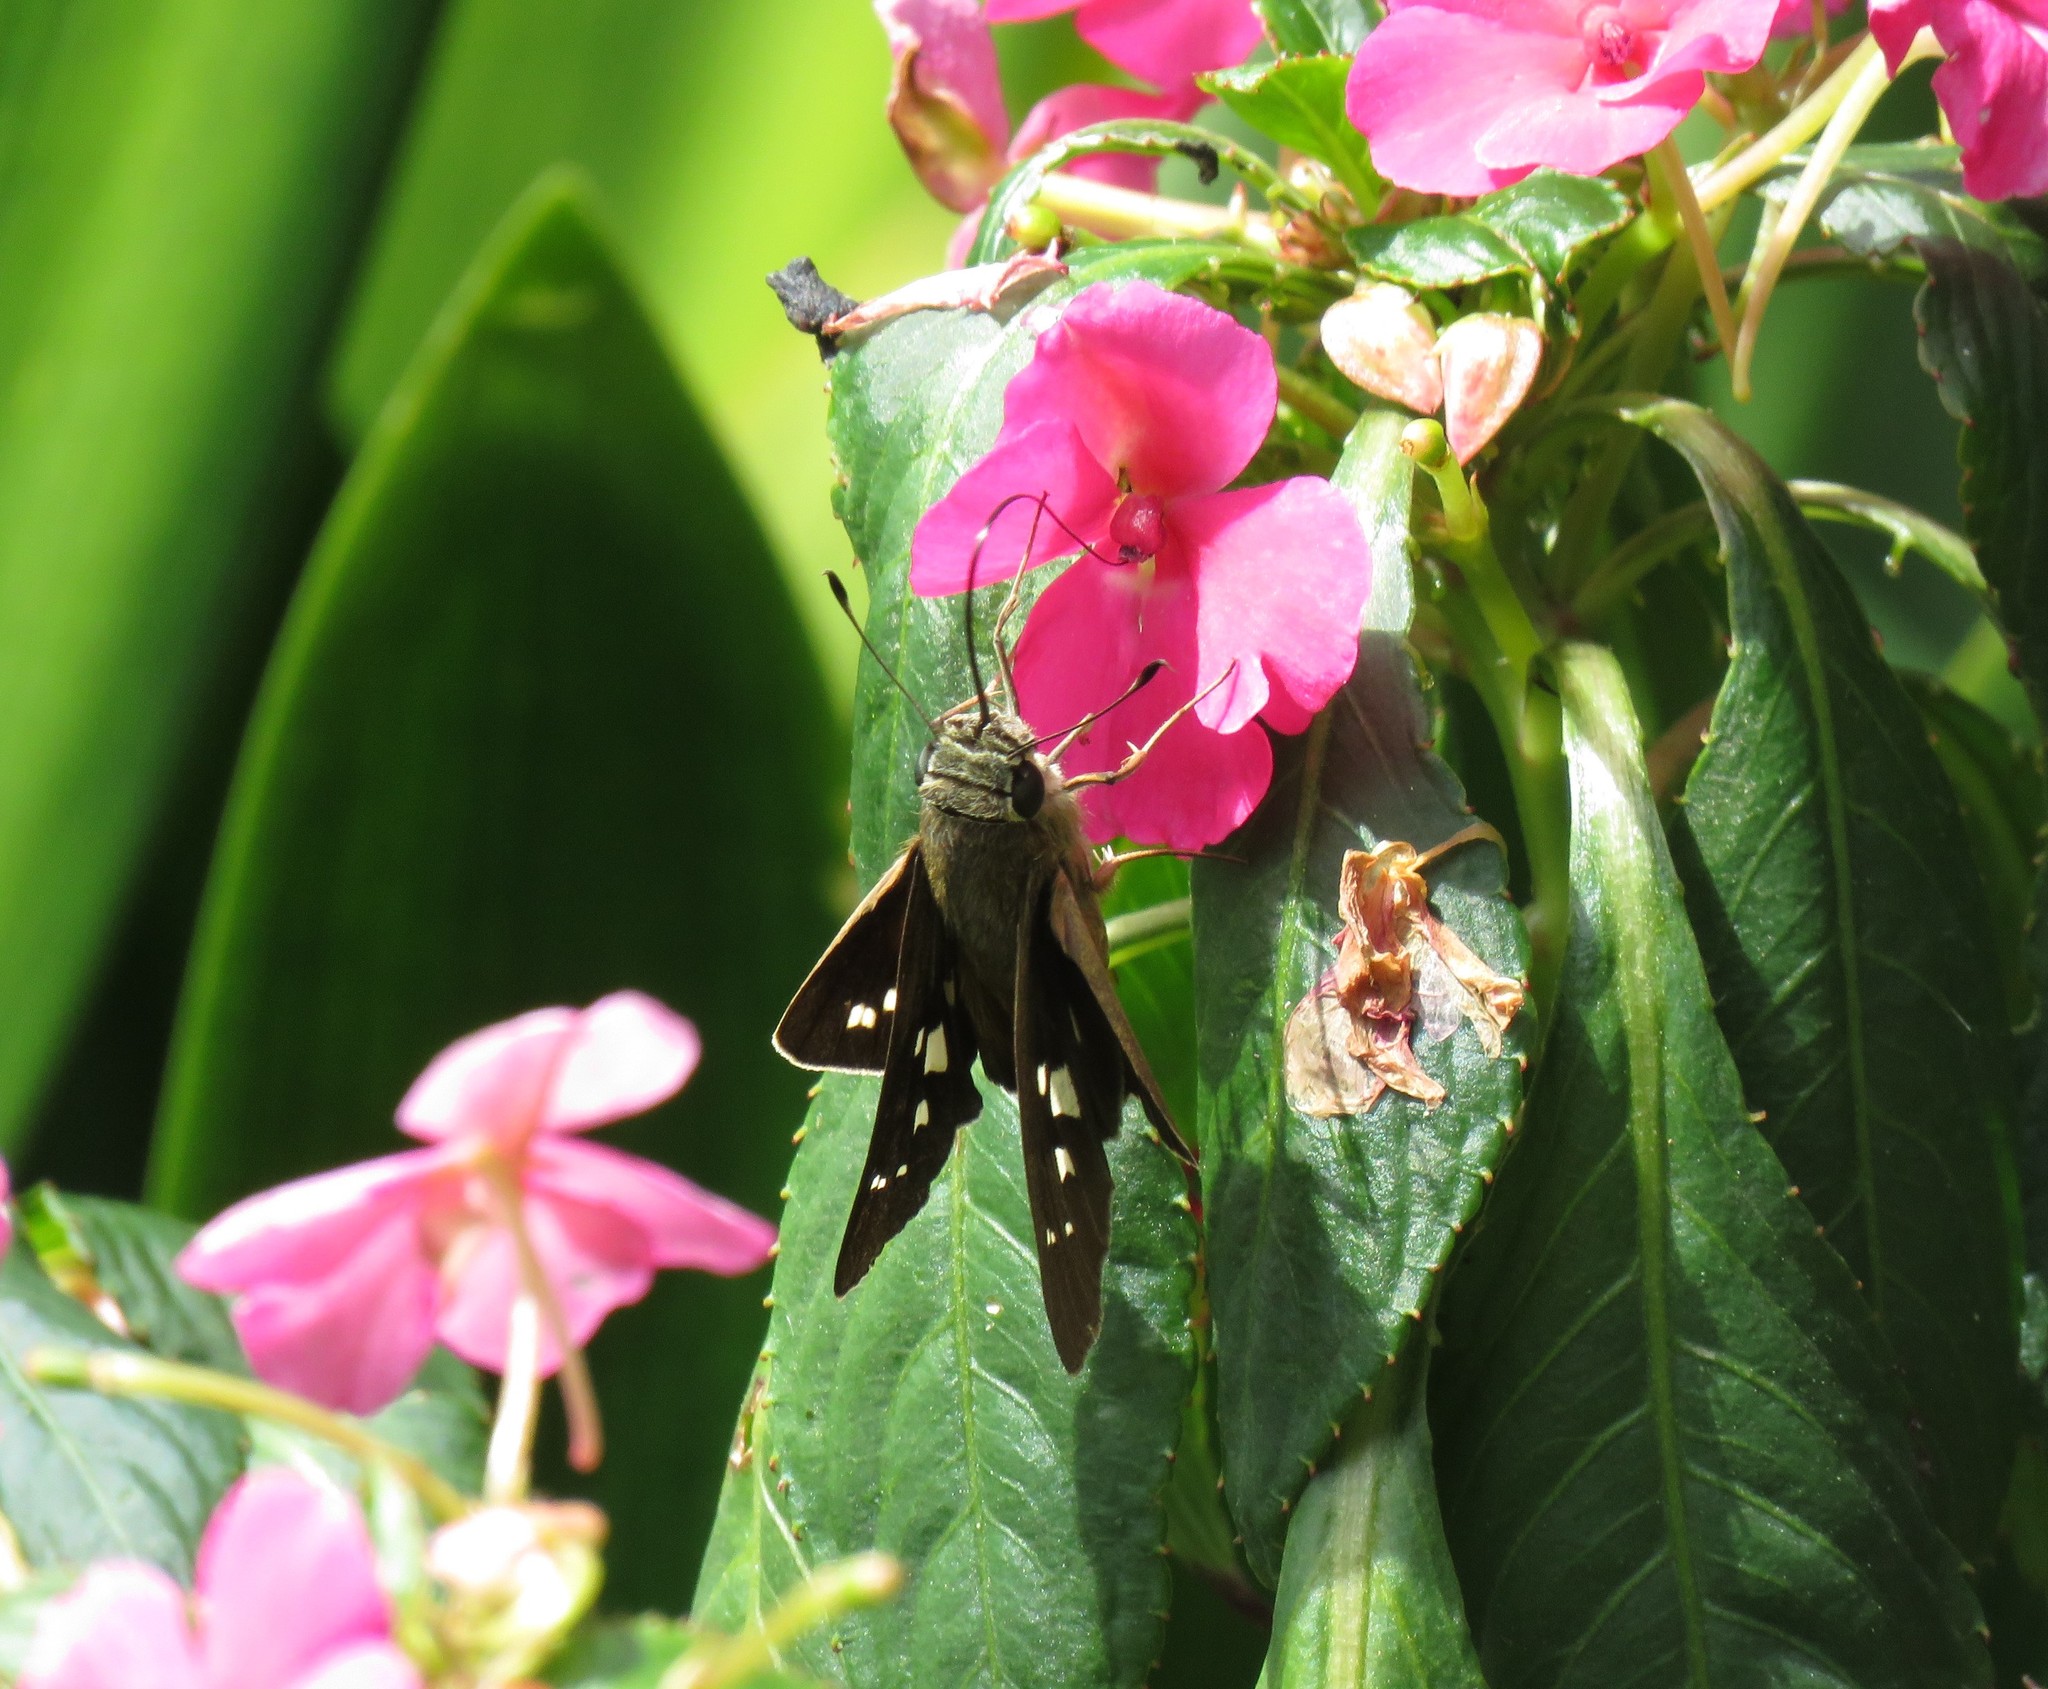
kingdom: Animalia
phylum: Arthropoda
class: Insecta
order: Lepidoptera
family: Hesperiidae
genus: Calpodes
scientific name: Calpodes ethlius
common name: Brazilian skipper
